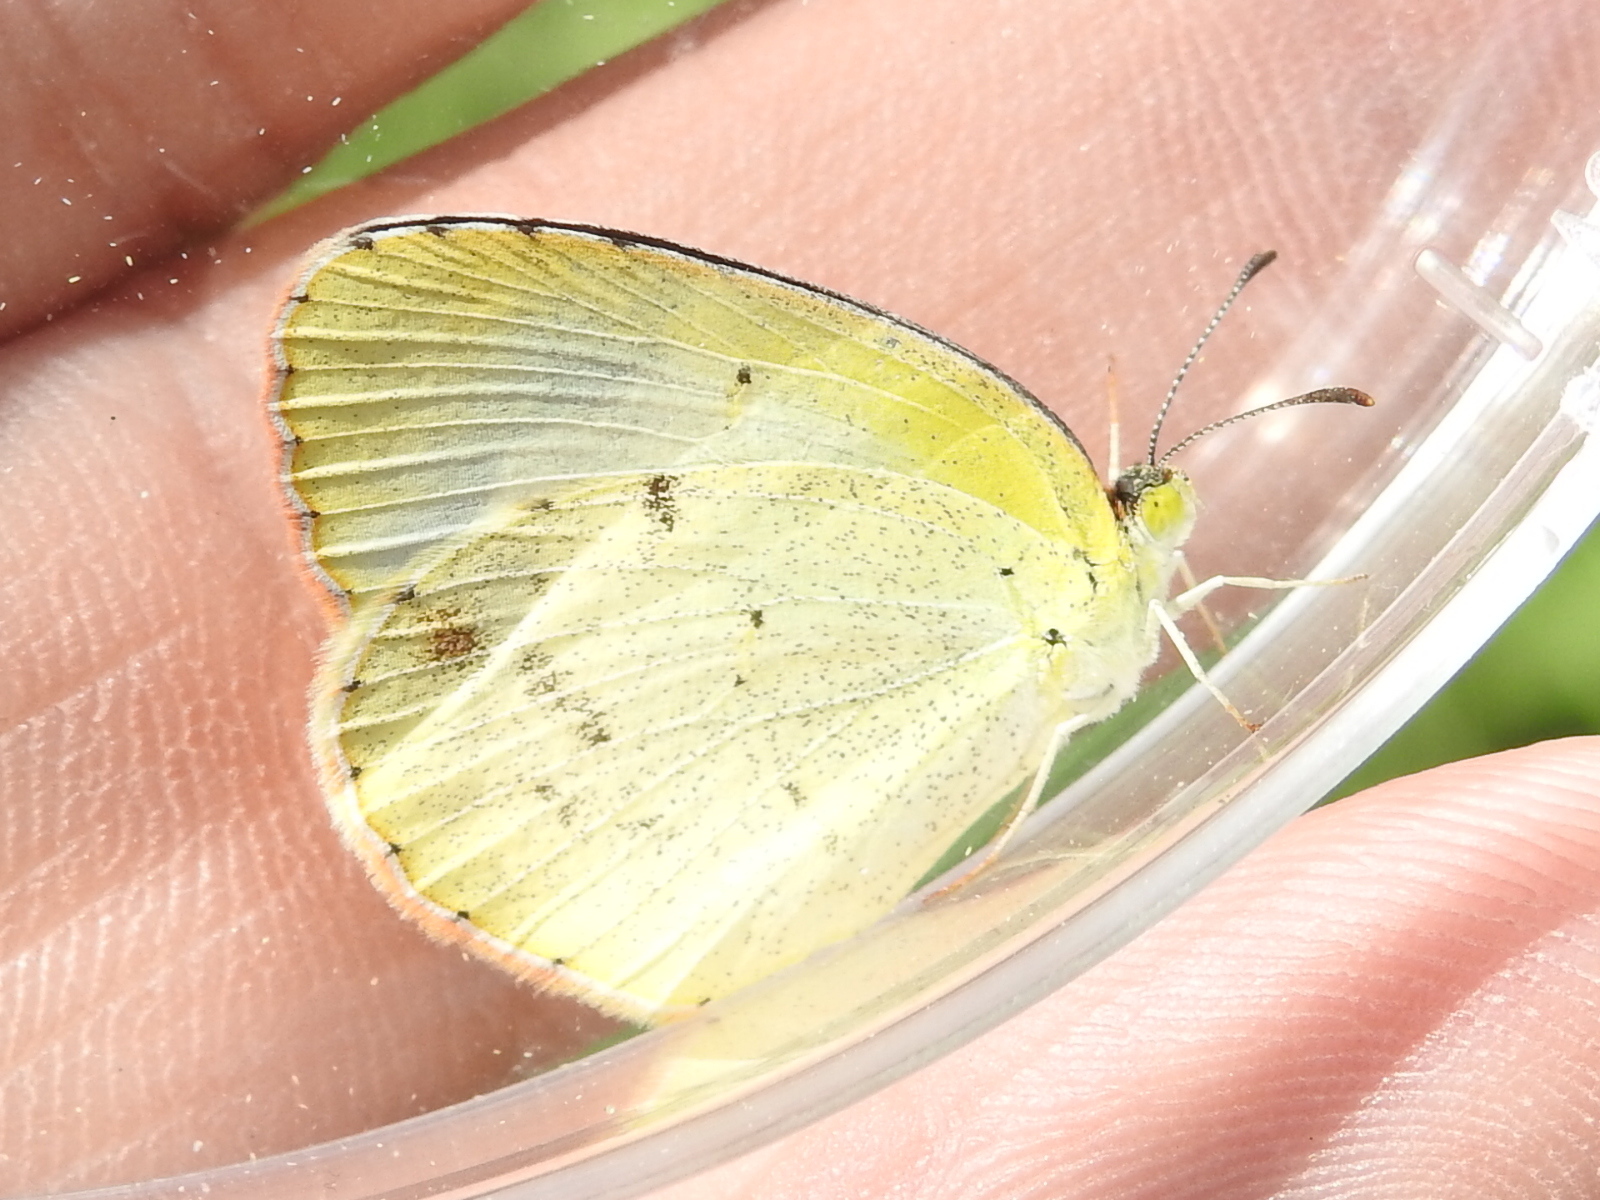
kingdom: Animalia
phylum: Arthropoda
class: Insecta
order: Lepidoptera
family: Pieridae
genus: Pyrisitia
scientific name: Pyrisitia lisa
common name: Little yellow
